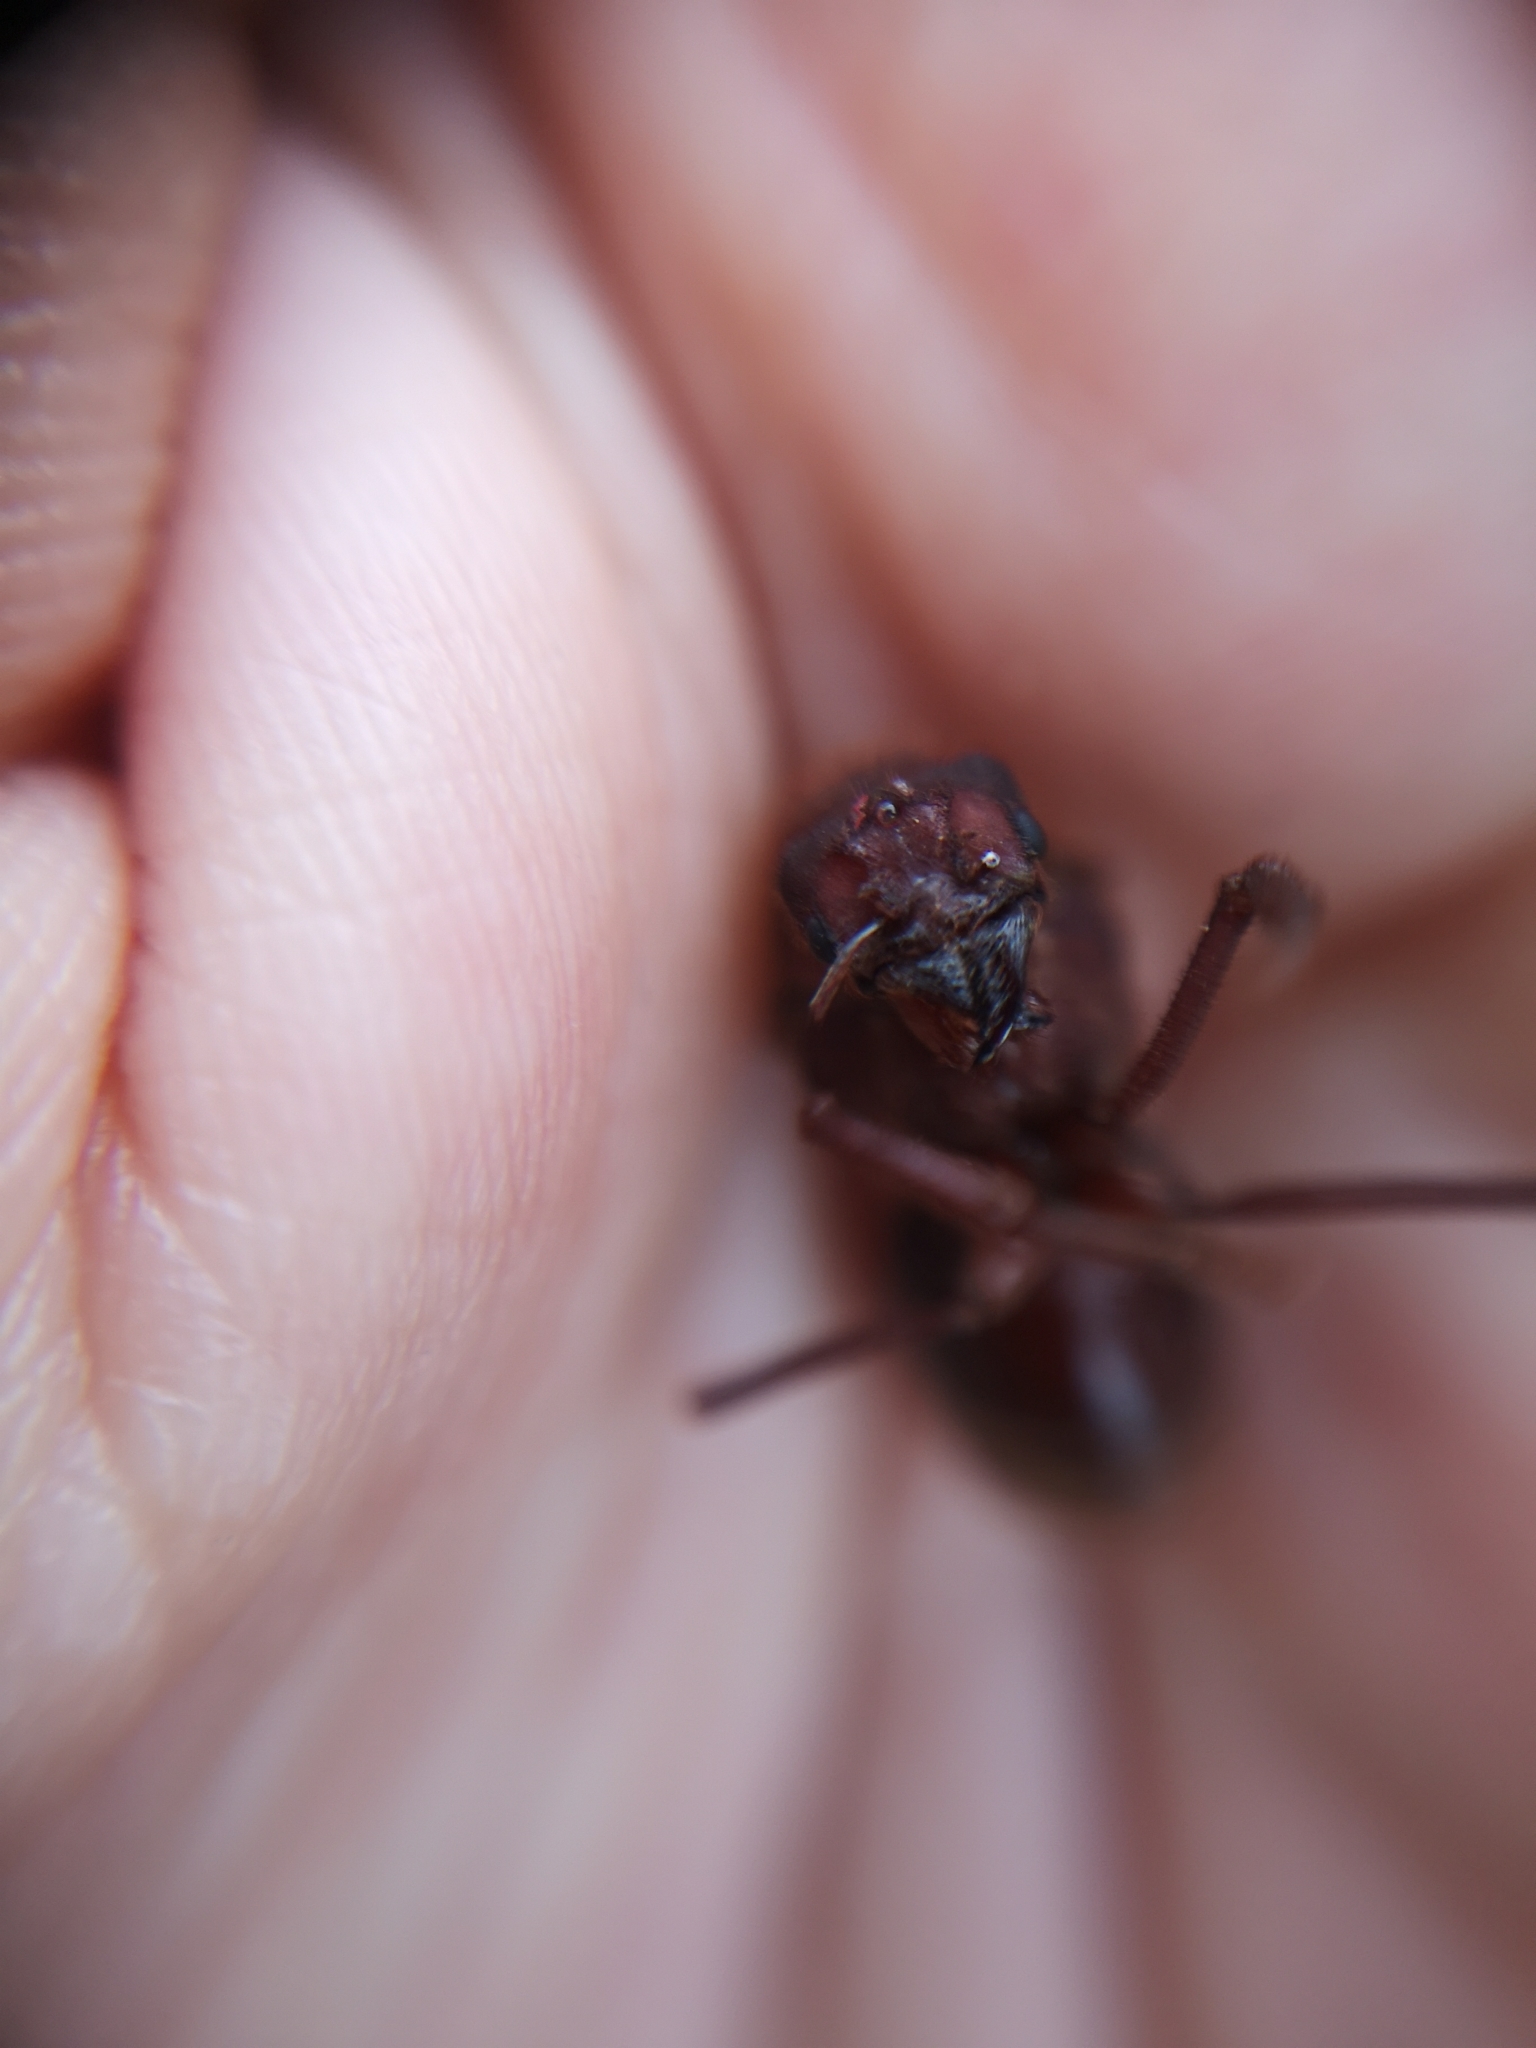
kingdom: Animalia
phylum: Arthropoda
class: Insecta
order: Hymenoptera
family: Formicidae
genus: Atta
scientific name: Atta mexicana
